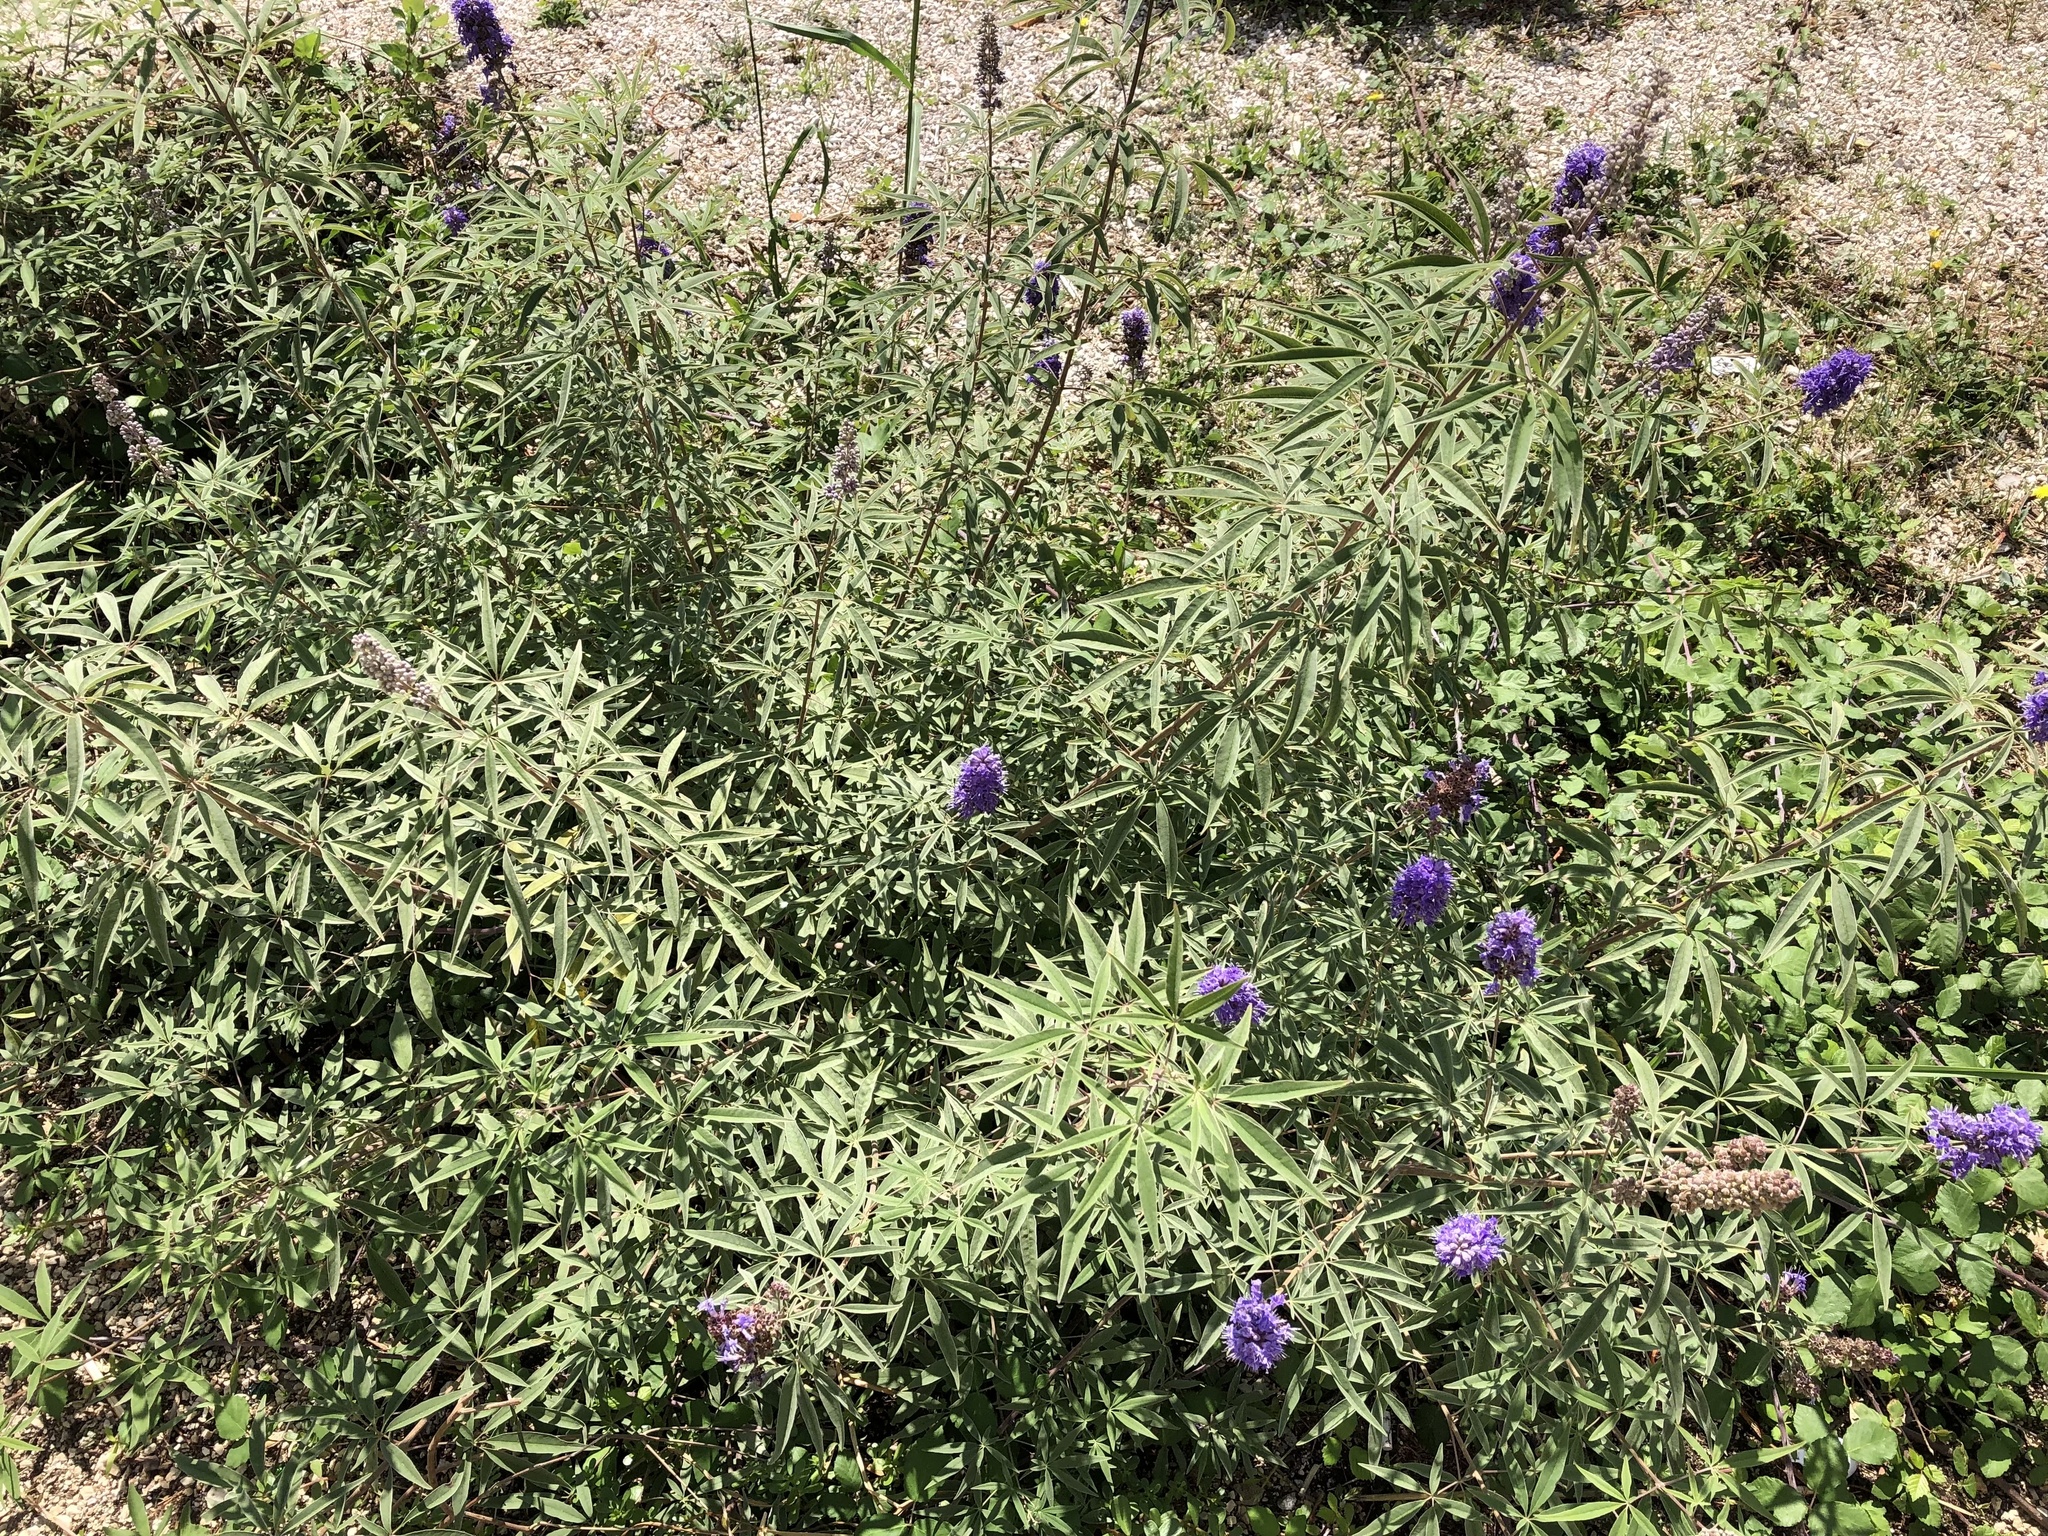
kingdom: Plantae
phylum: Tracheophyta
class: Magnoliopsida
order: Lamiales
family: Lamiaceae
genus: Vitex
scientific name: Vitex agnus-castus
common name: Chasteberry
